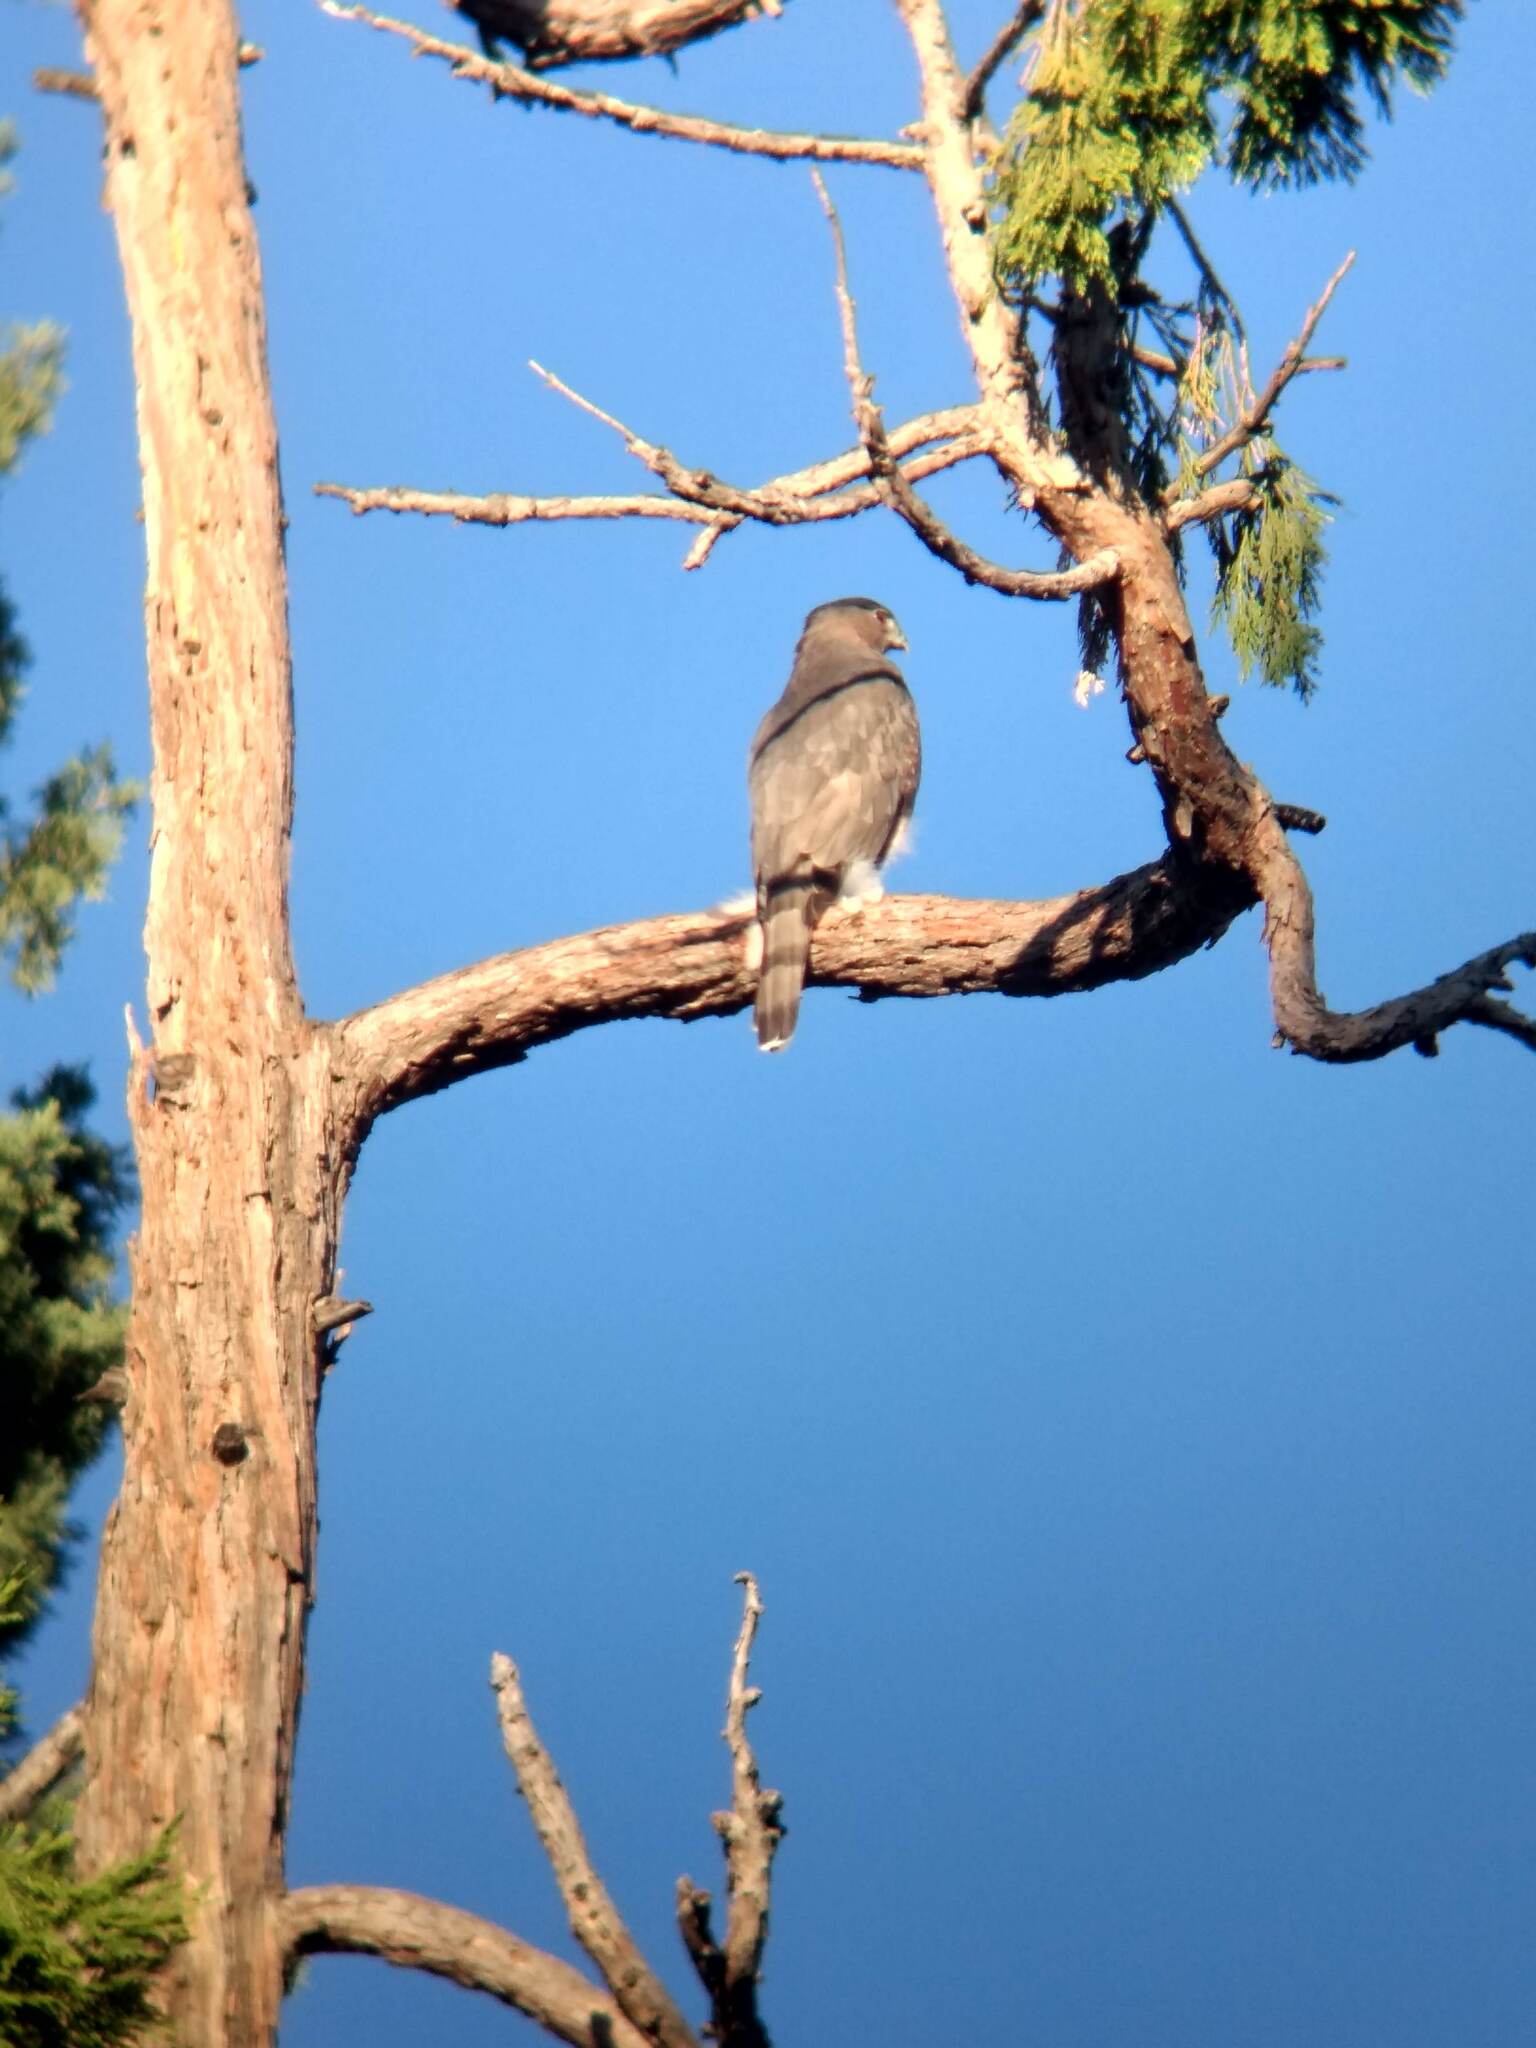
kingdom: Animalia
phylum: Chordata
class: Aves
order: Accipitriformes
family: Accipitridae
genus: Accipiter
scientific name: Accipiter cooperii
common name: Cooper's hawk
